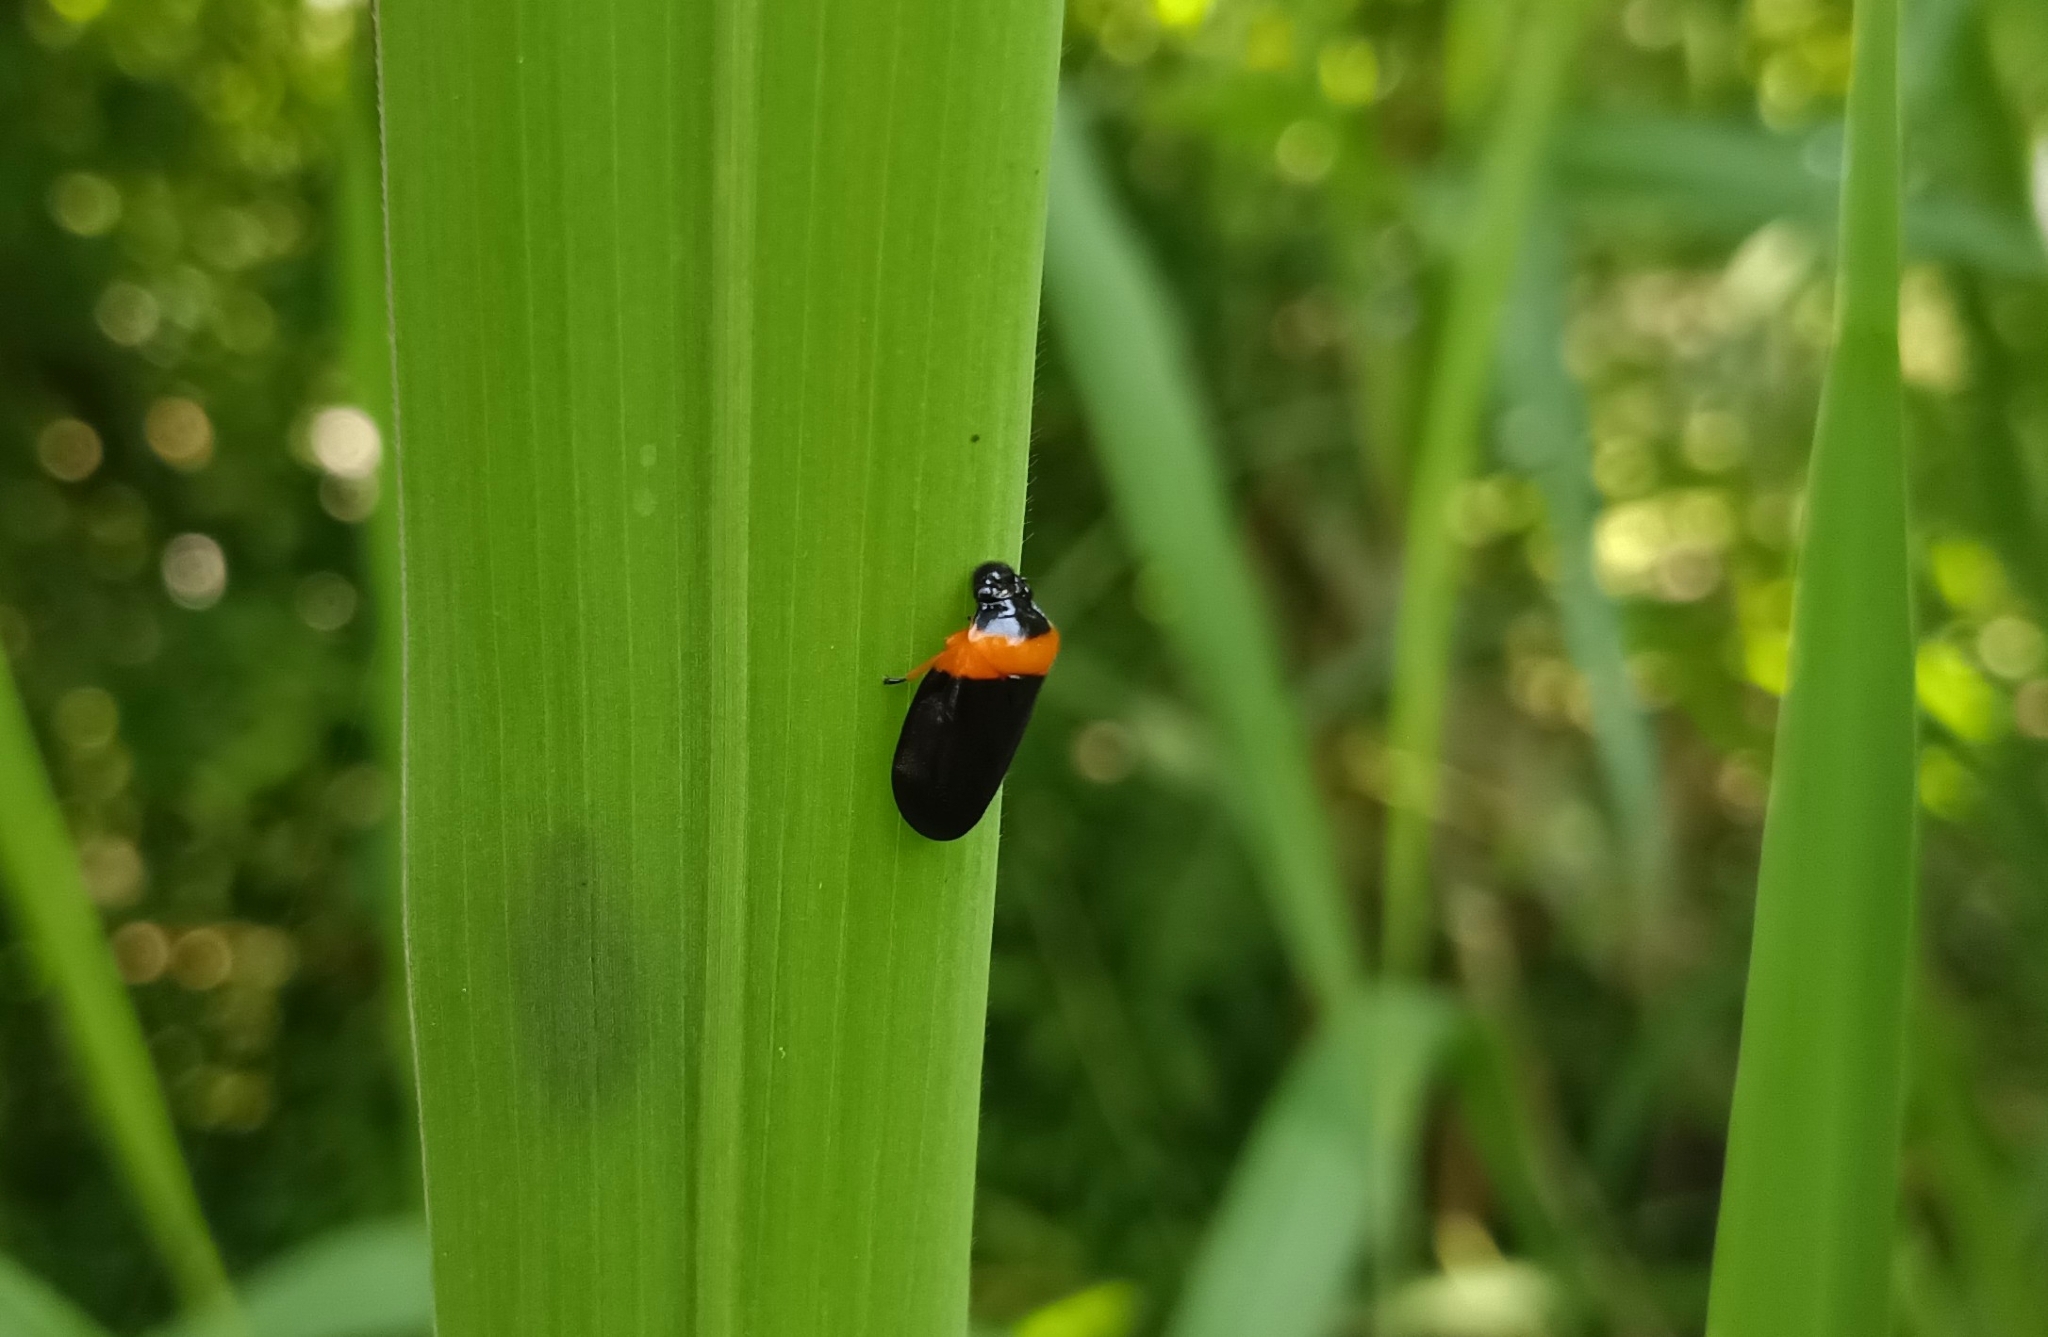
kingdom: Animalia
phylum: Arthropoda
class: Insecta
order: Hemiptera
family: Cercopidae
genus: Phymatostetha
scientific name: Phymatostetha deschampsi
